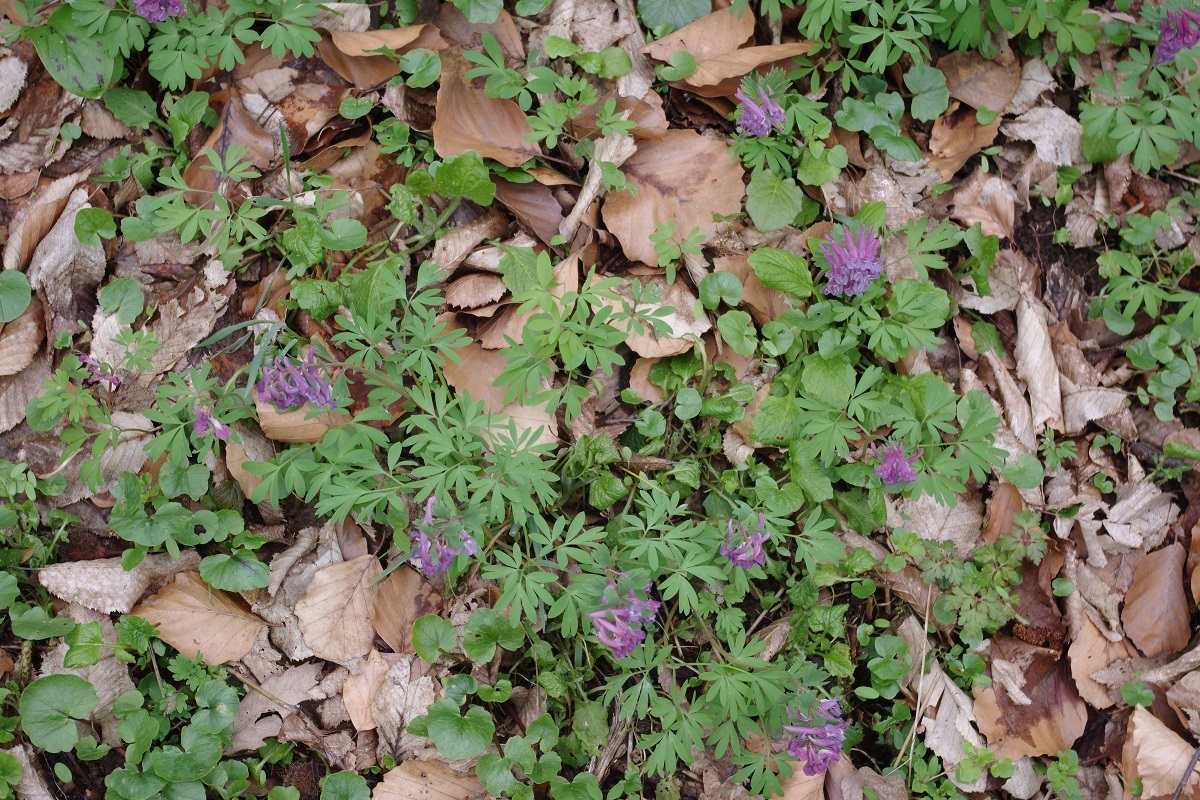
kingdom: Plantae
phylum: Tracheophyta
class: Magnoliopsida
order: Ranunculales
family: Papaveraceae
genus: Corydalis
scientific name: Corydalis solida
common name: Bird-in-a-bush
